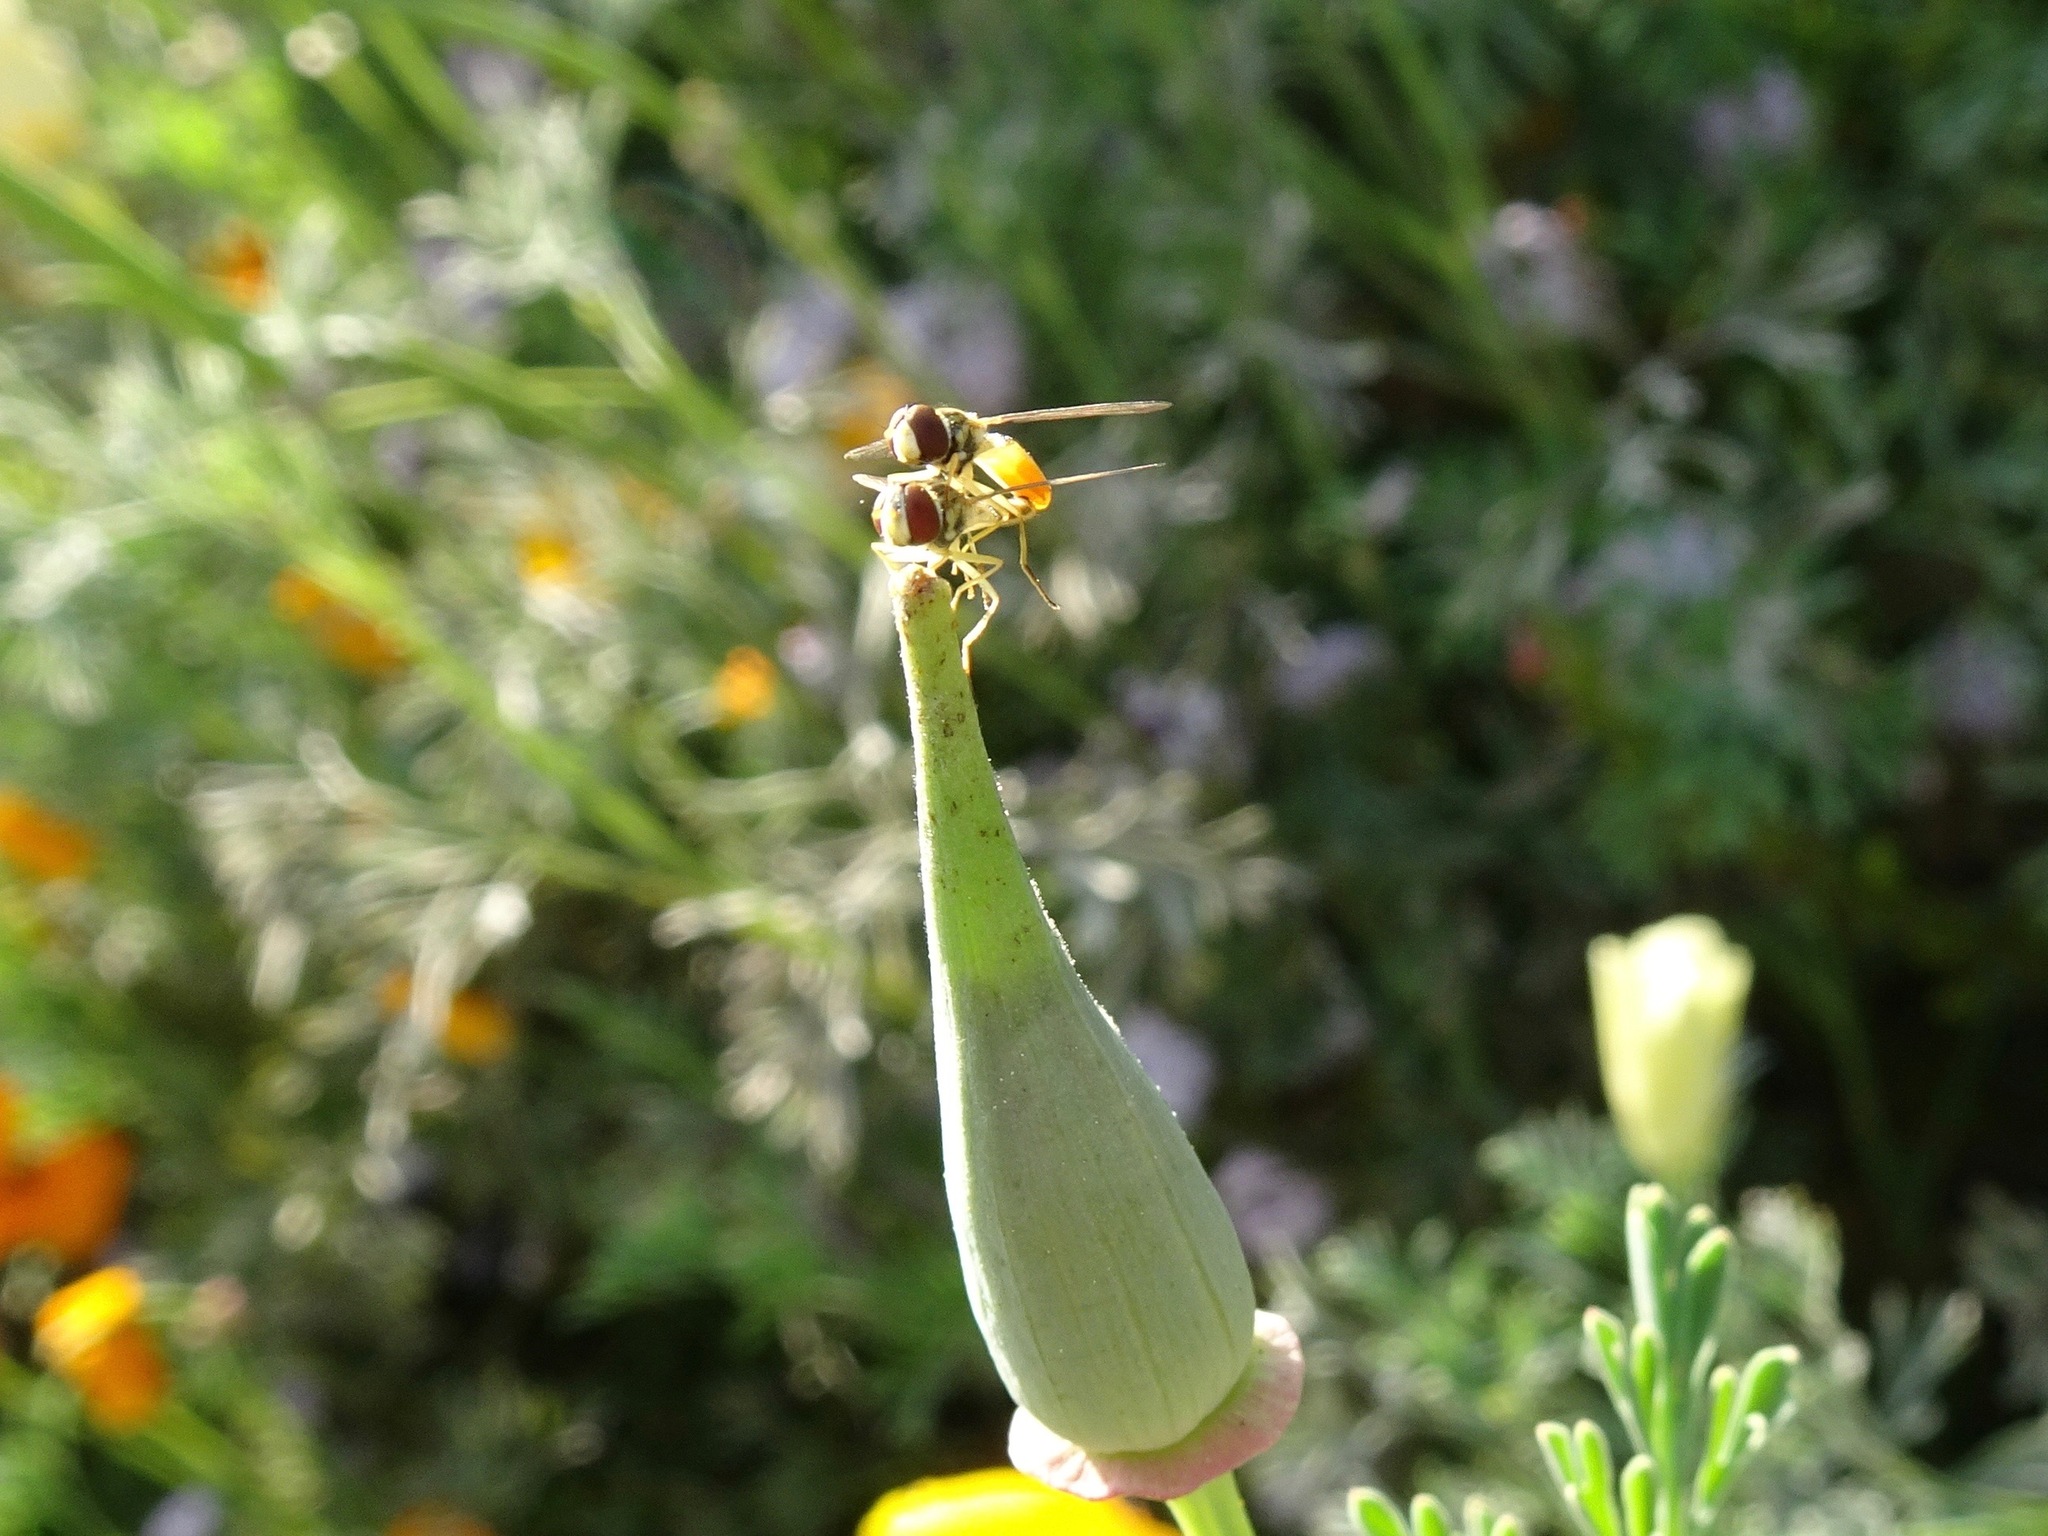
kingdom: Animalia
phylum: Arthropoda
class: Insecta
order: Diptera
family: Syrphidae
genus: Toxomerus
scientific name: Toxomerus marginatus
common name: Syrphid fly
